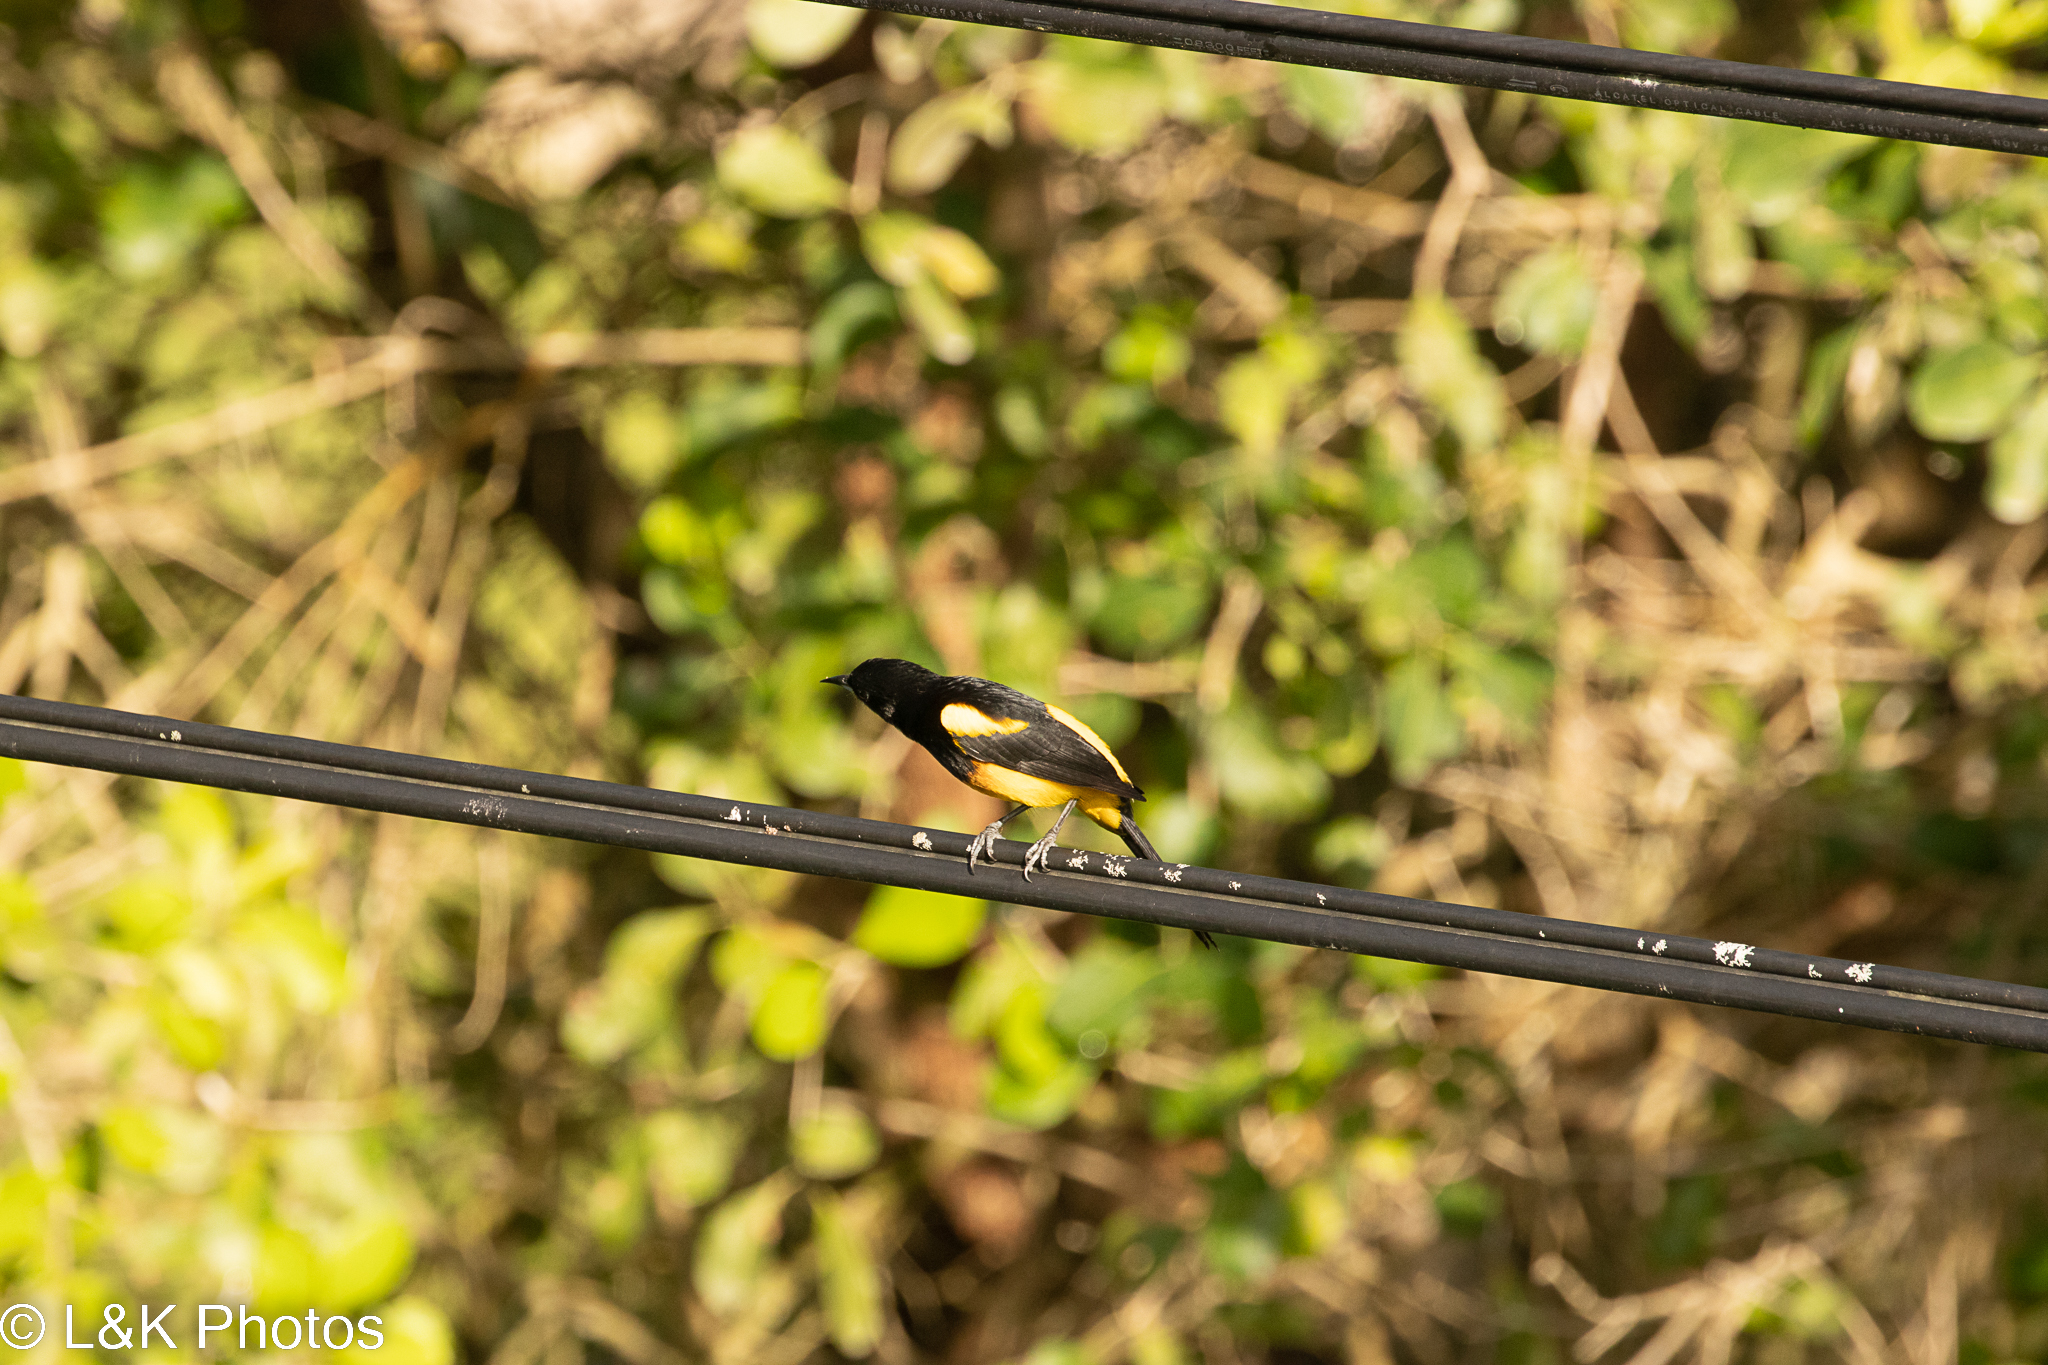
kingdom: Animalia
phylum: Chordata
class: Aves
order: Passeriformes
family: Icteridae
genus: Icterus
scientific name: Icterus prosthemelas
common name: Black-cowled oriole
